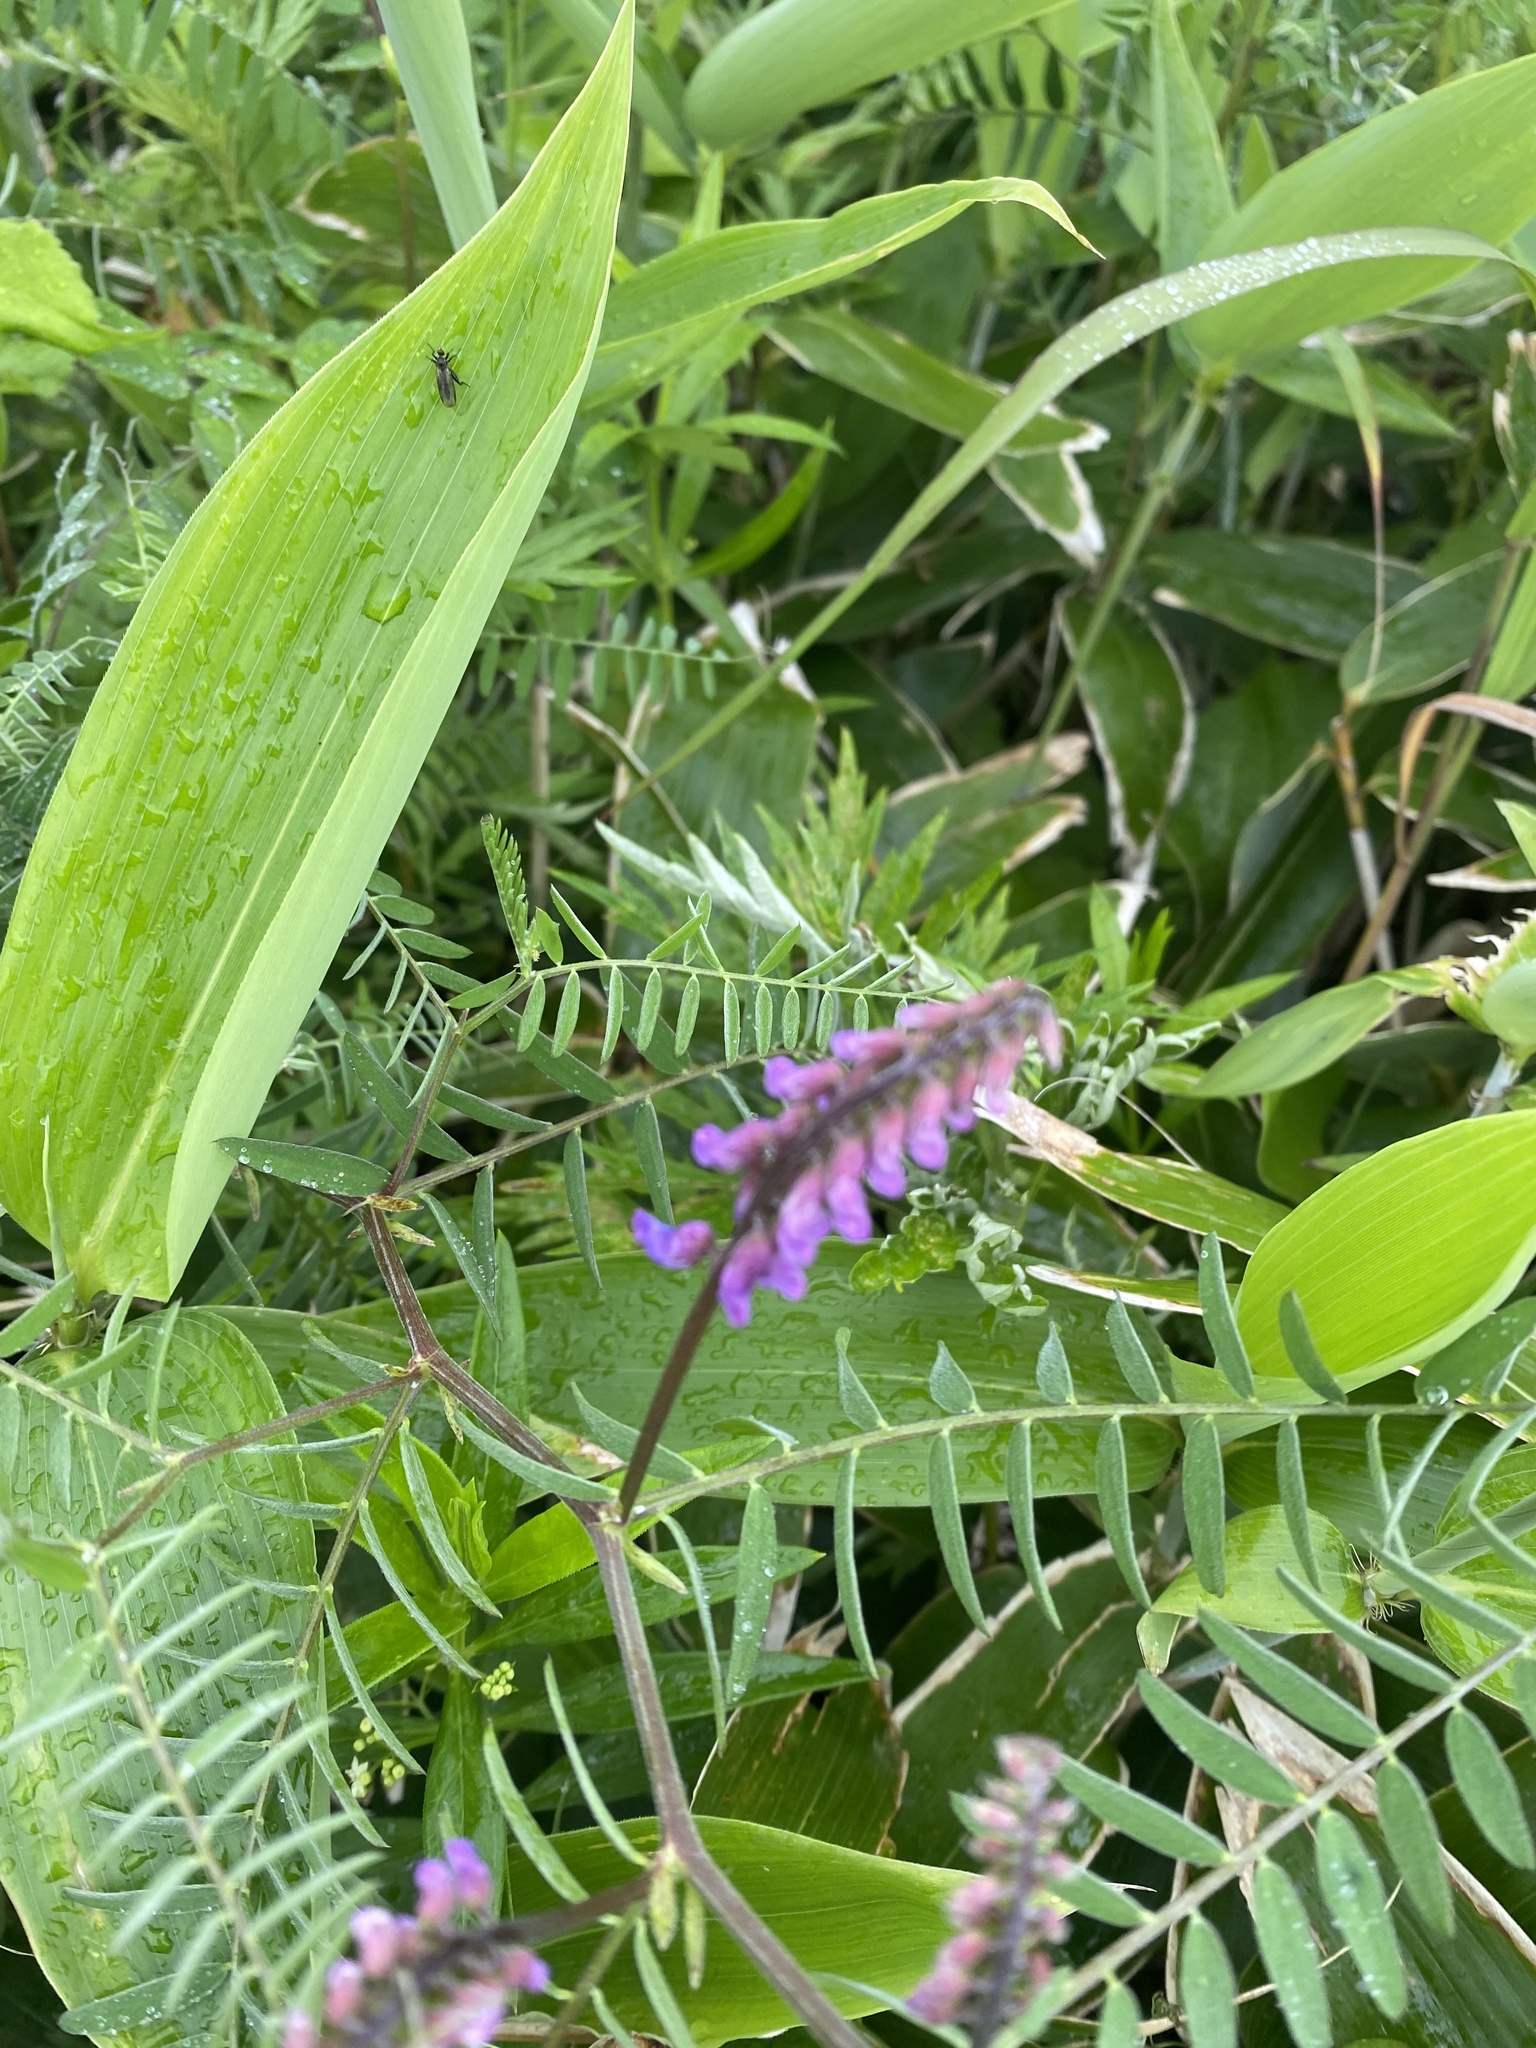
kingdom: Plantae
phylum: Tracheophyta
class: Magnoliopsida
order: Fabales
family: Fabaceae
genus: Vicia
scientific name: Vicia cracca
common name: Bird vetch
